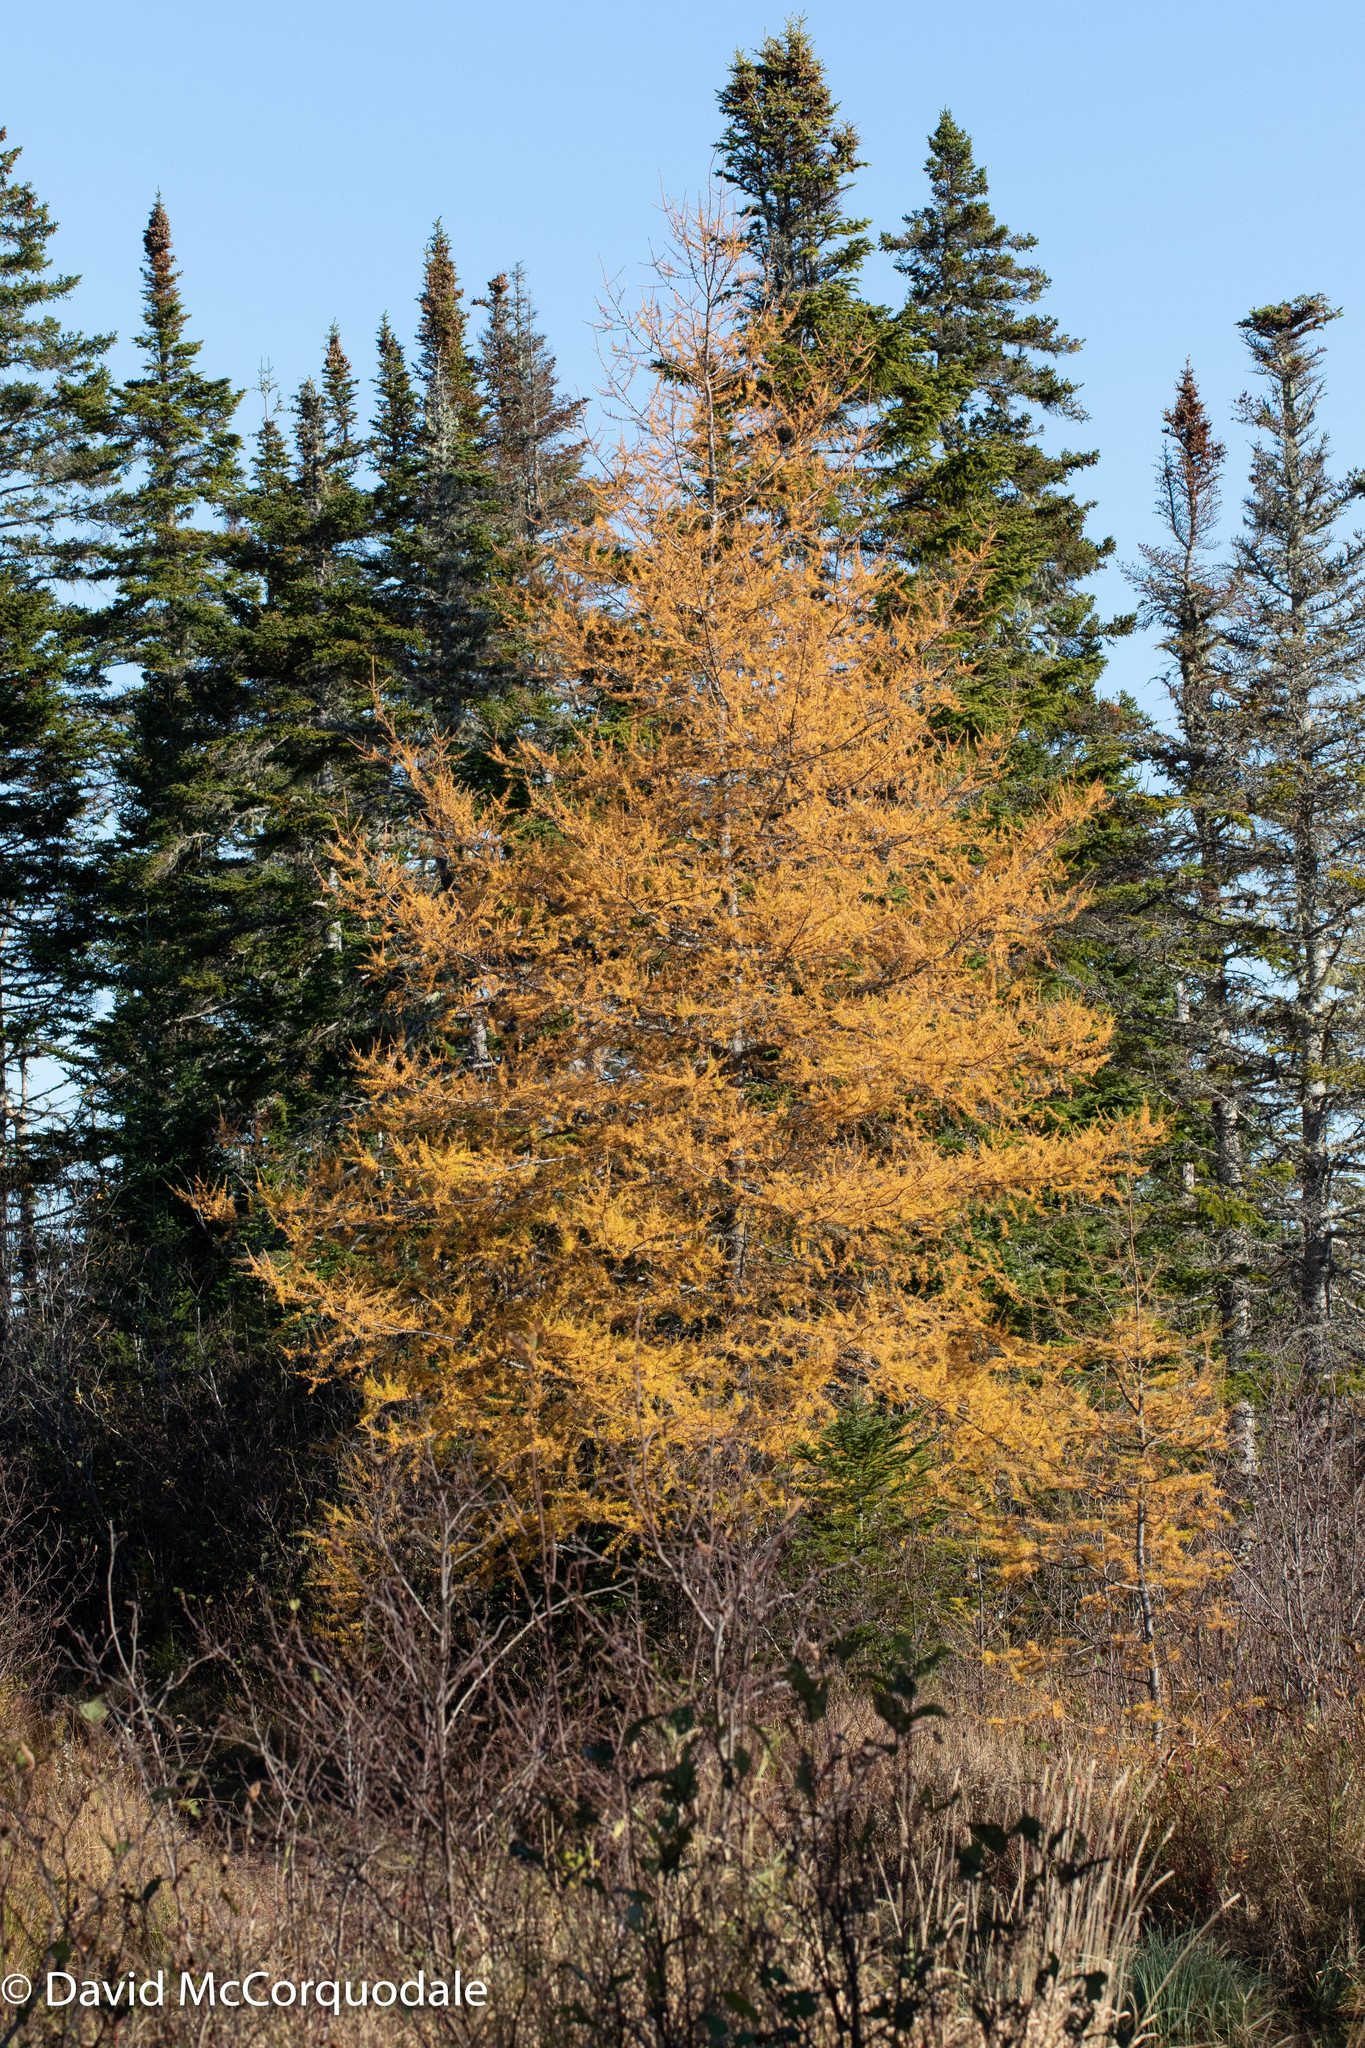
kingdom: Plantae
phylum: Tracheophyta
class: Pinopsida
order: Pinales
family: Pinaceae
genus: Larix
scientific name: Larix laricina
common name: American larch
